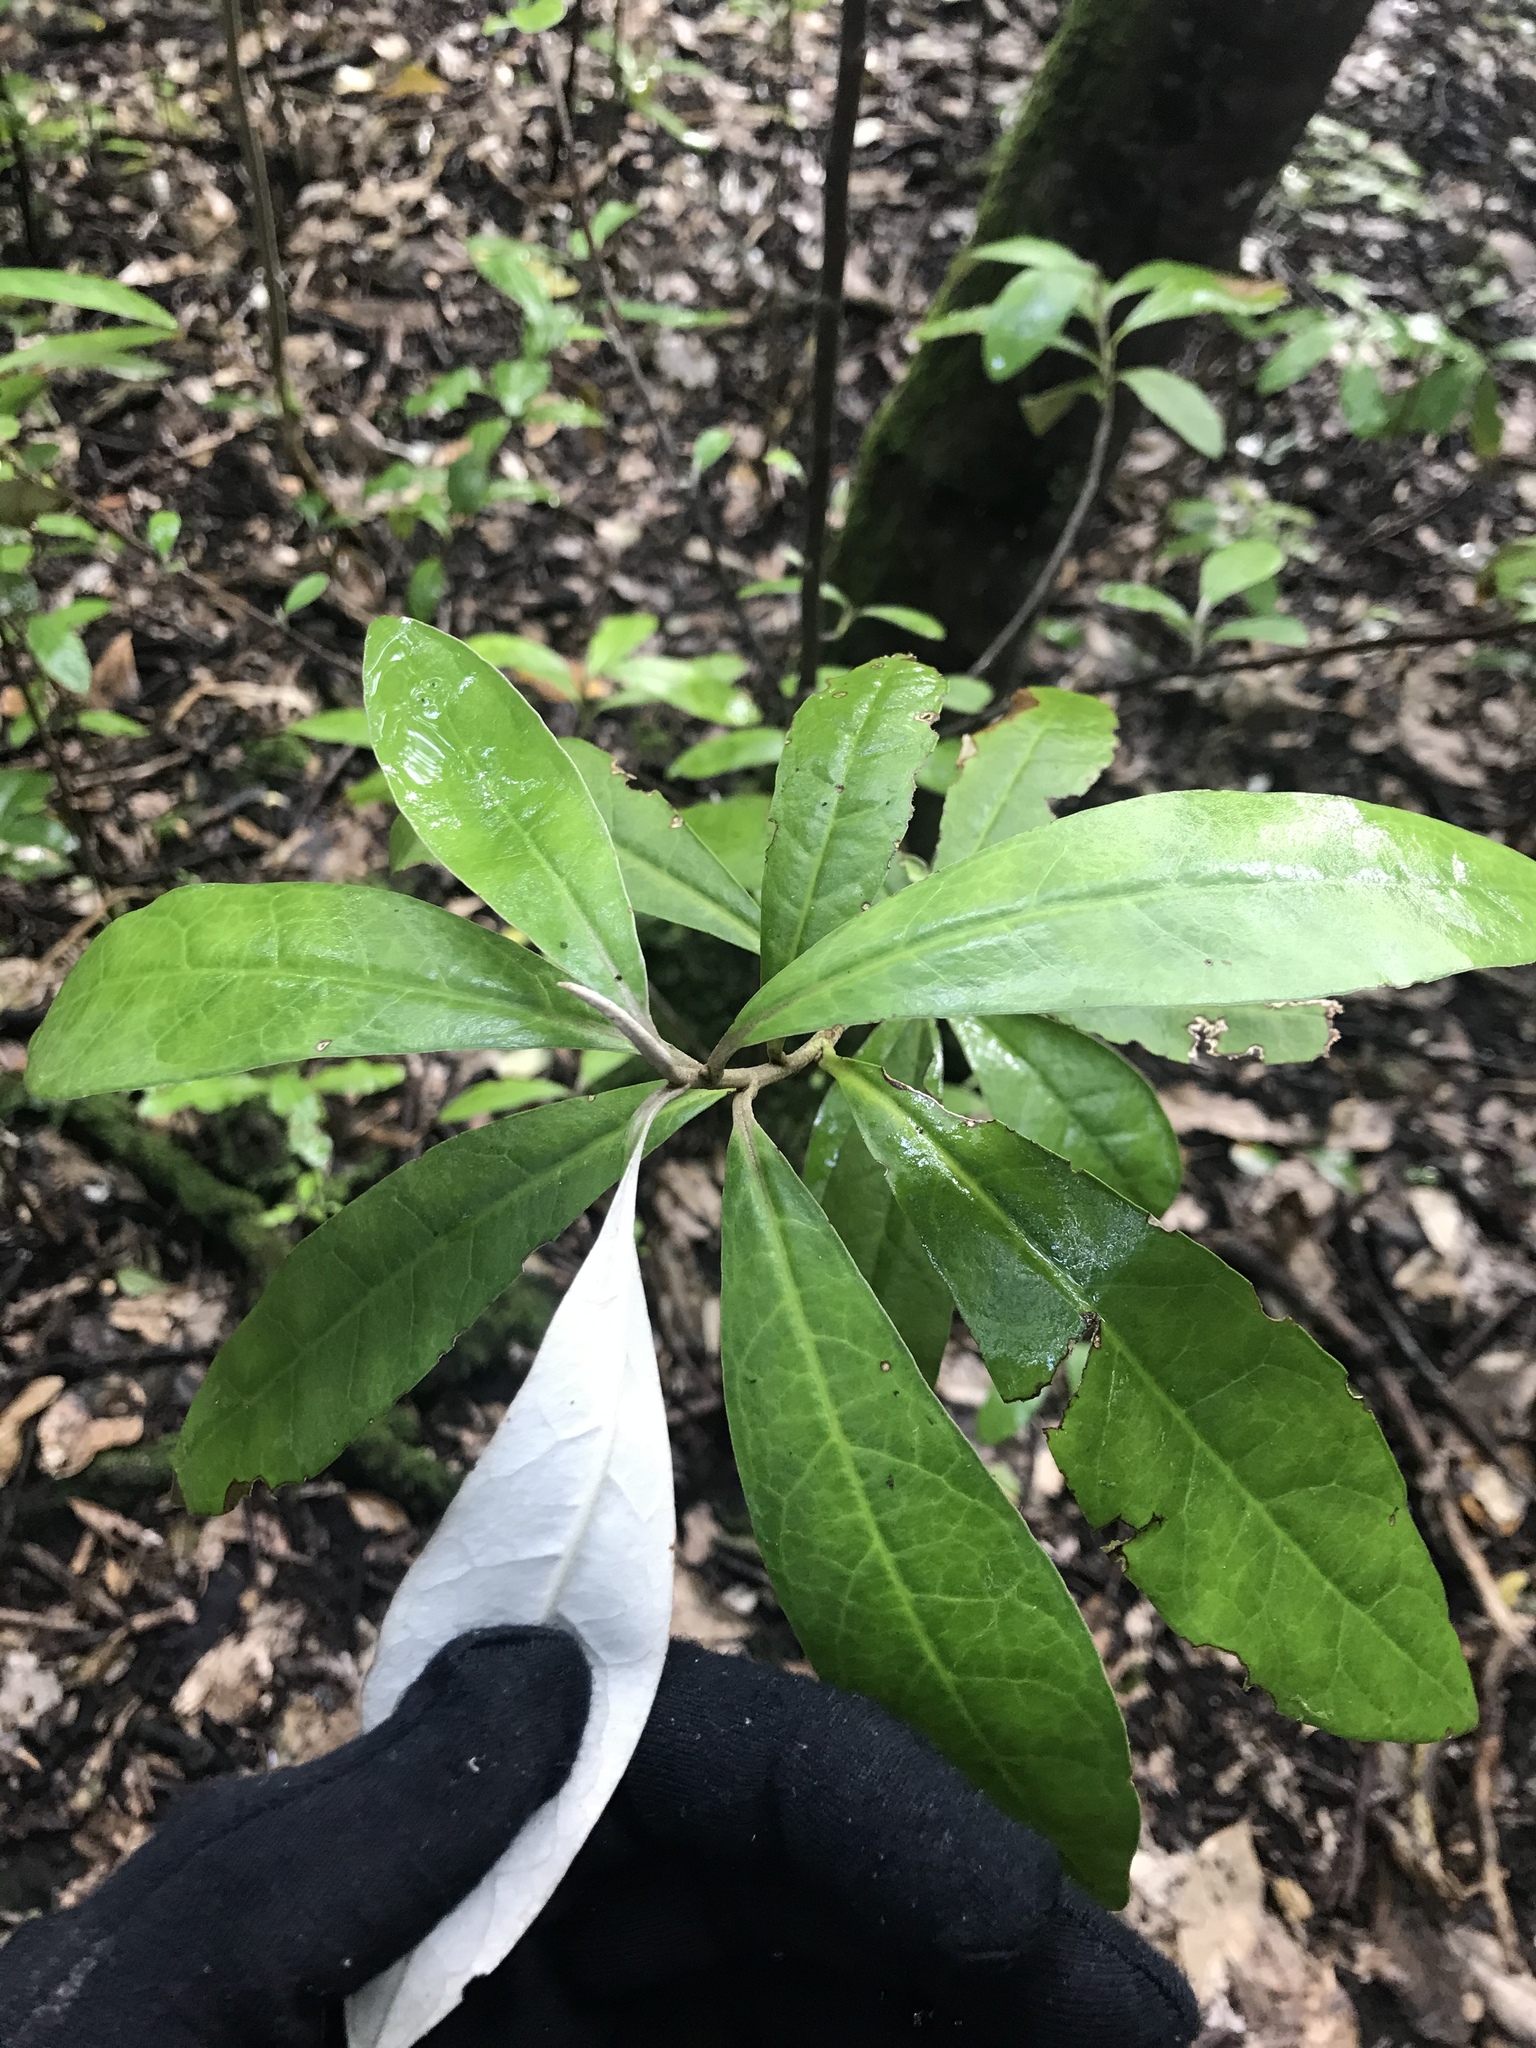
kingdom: Plantae
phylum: Tracheophyta
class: Magnoliopsida
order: Asterales
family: Argophyllaceae
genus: Corokia
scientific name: Corokia macrocarpa
